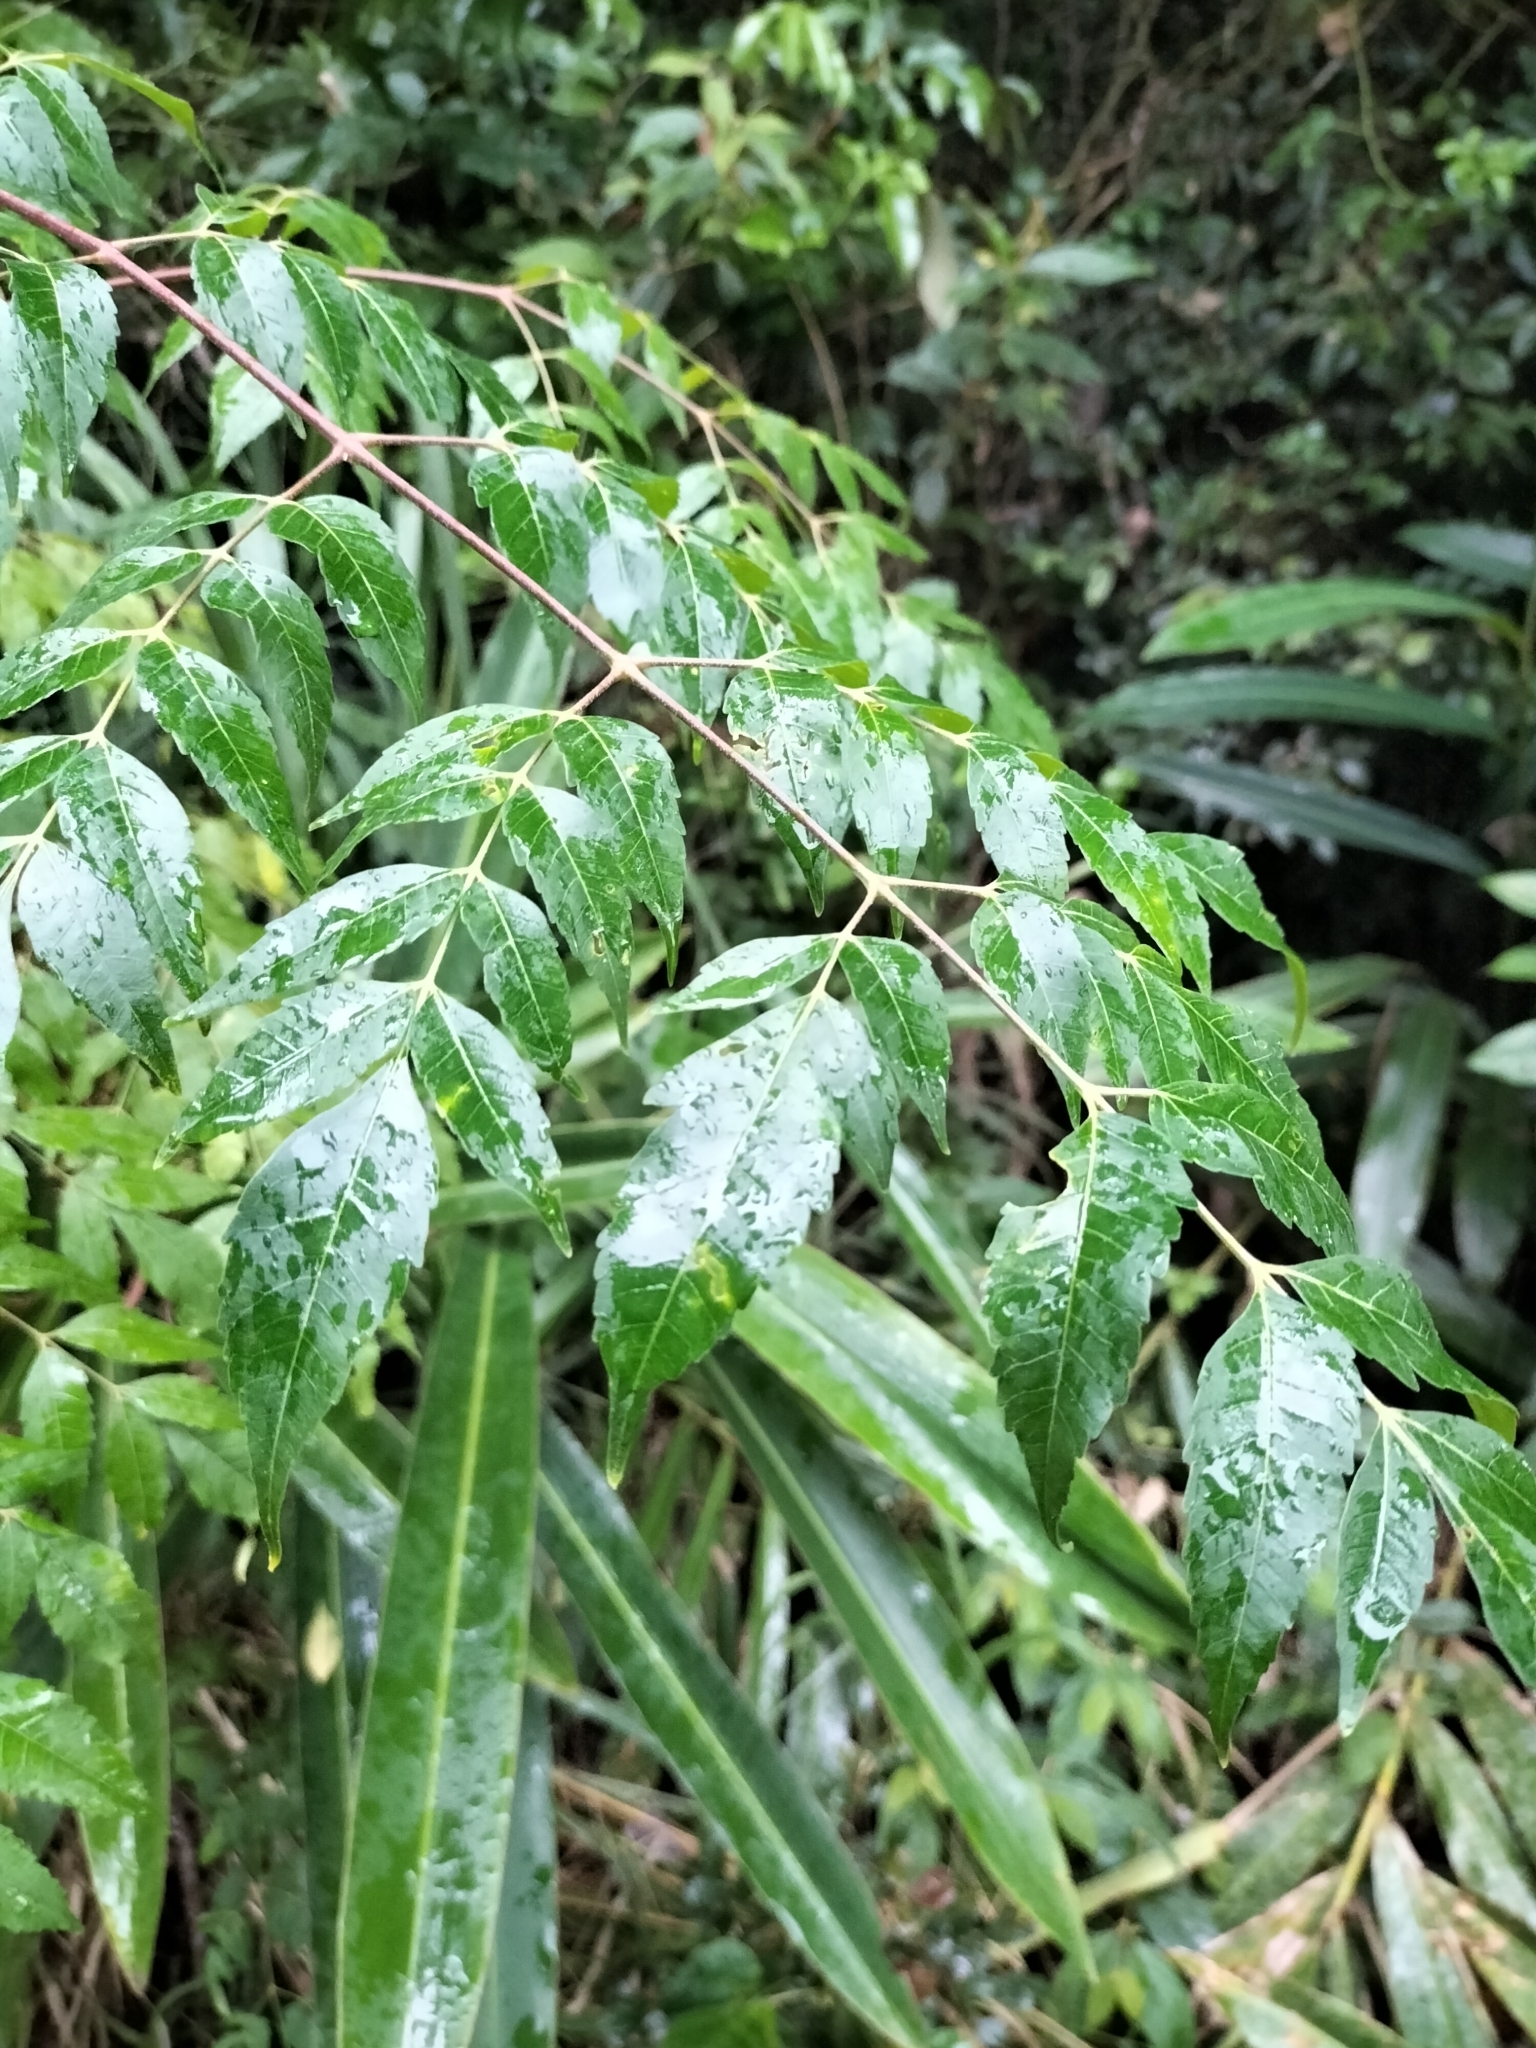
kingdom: Plantae
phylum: Tracheophyta
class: Magnoliopsida
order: Sapindales
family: Meliaceae
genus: Melia
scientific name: Melia azedarach
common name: Chinaberrytree
